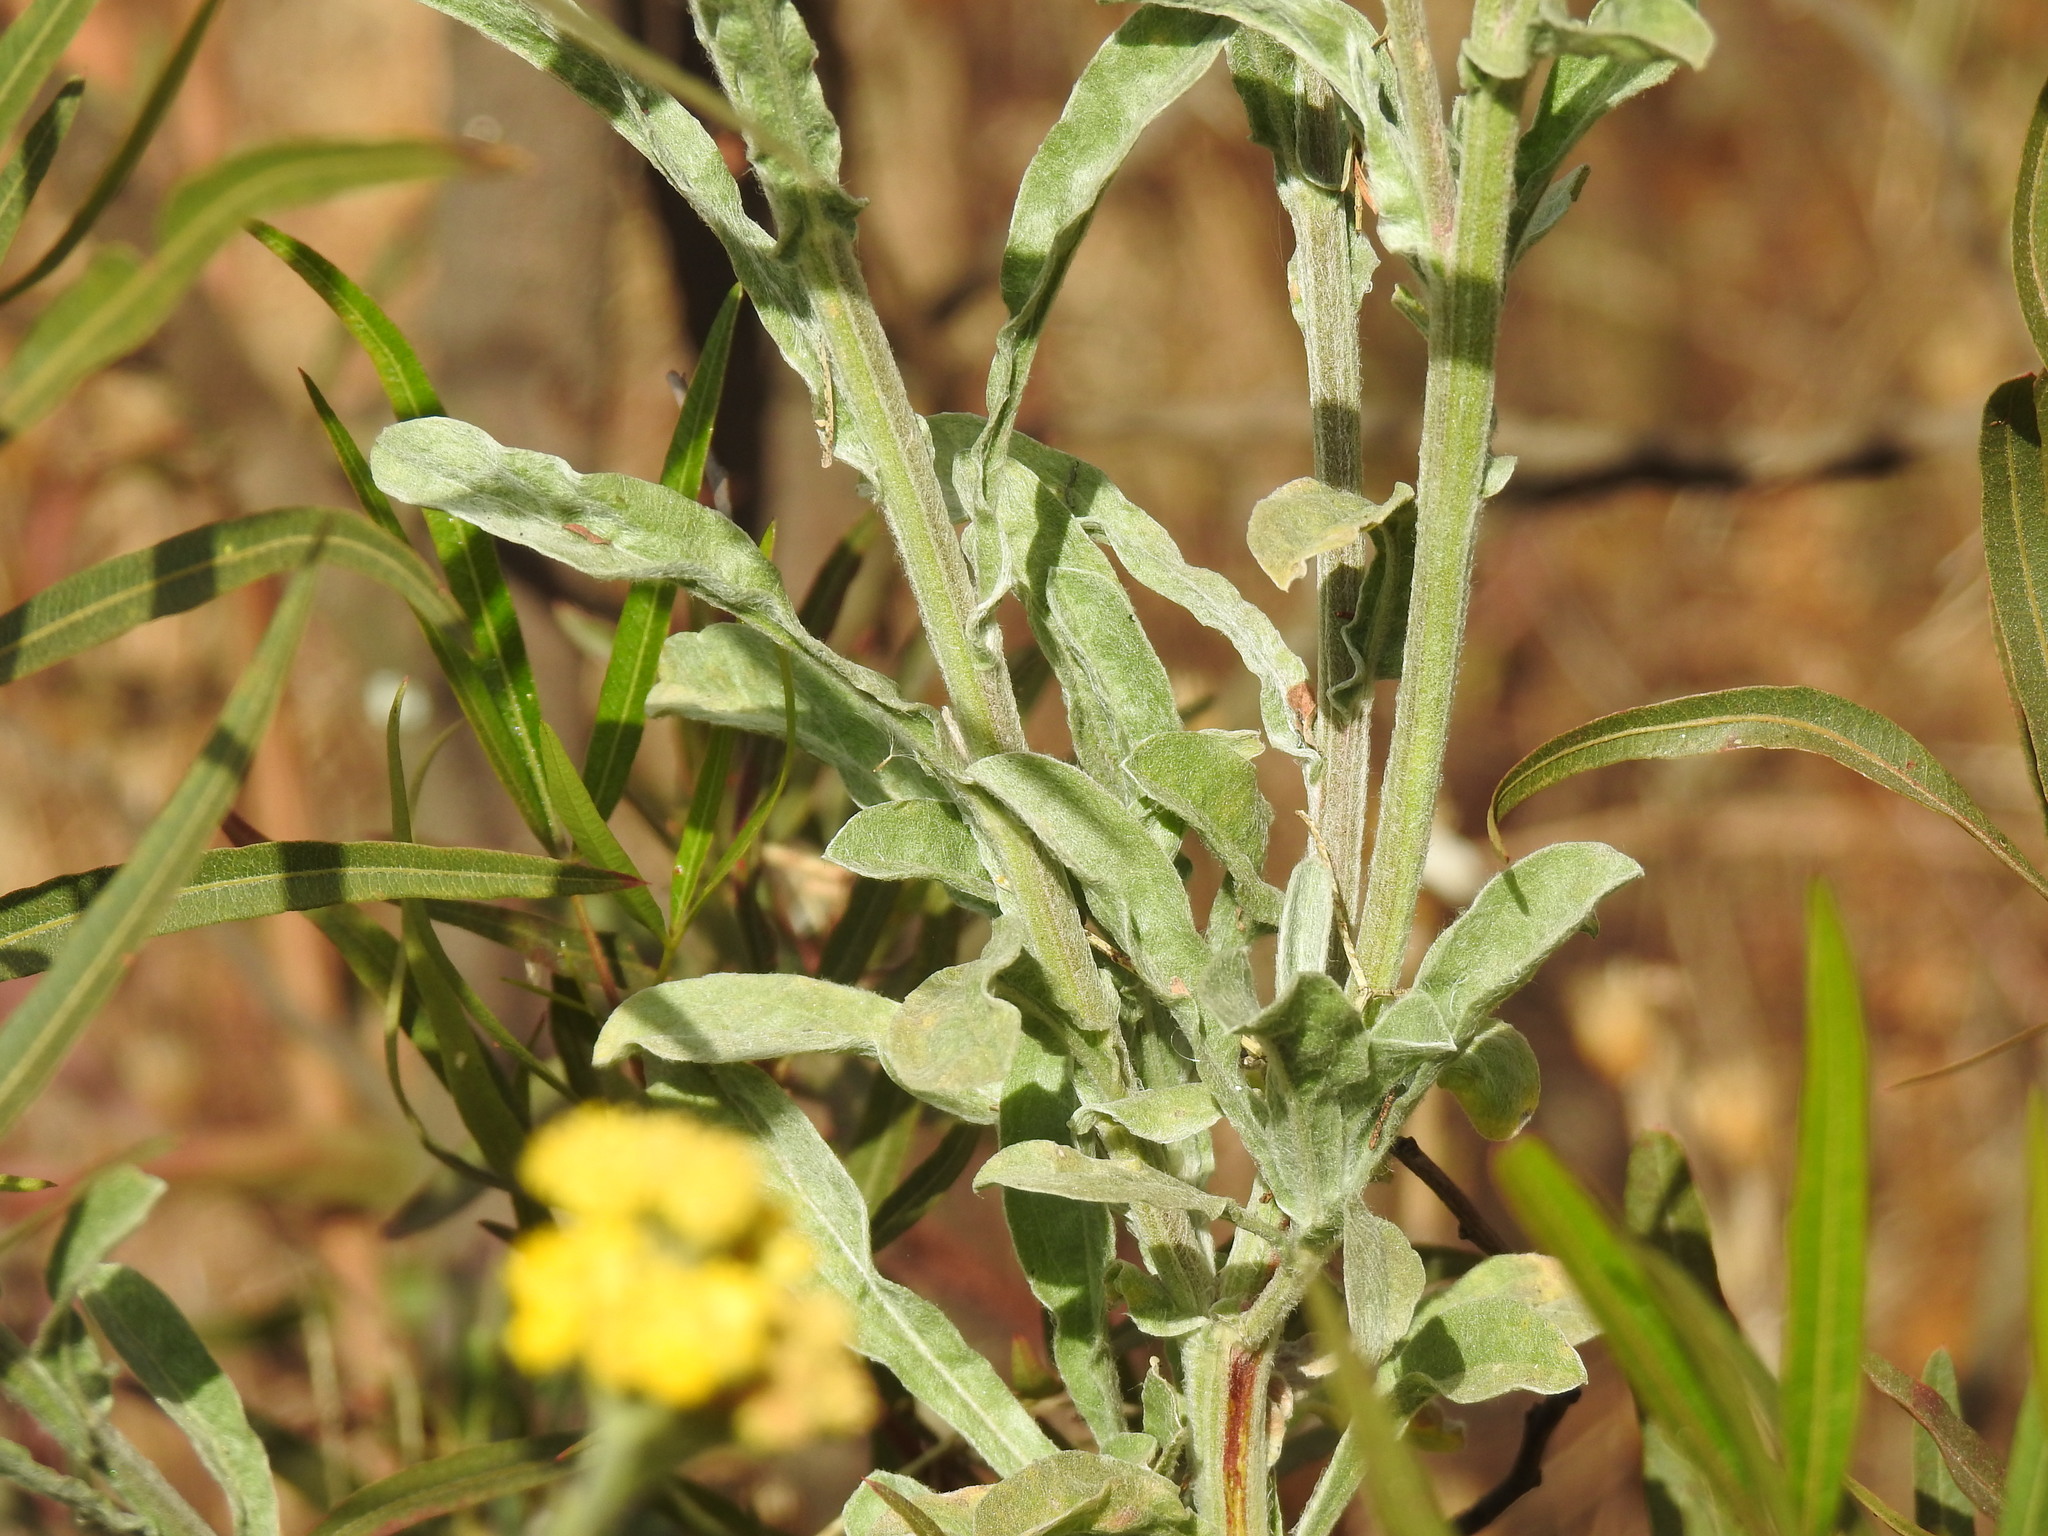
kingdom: Plantae
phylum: Tracheophyta
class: Magnoliopsida
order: Asterales
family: Asteraceae
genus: Nidorella
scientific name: Nidorella hottentotica
